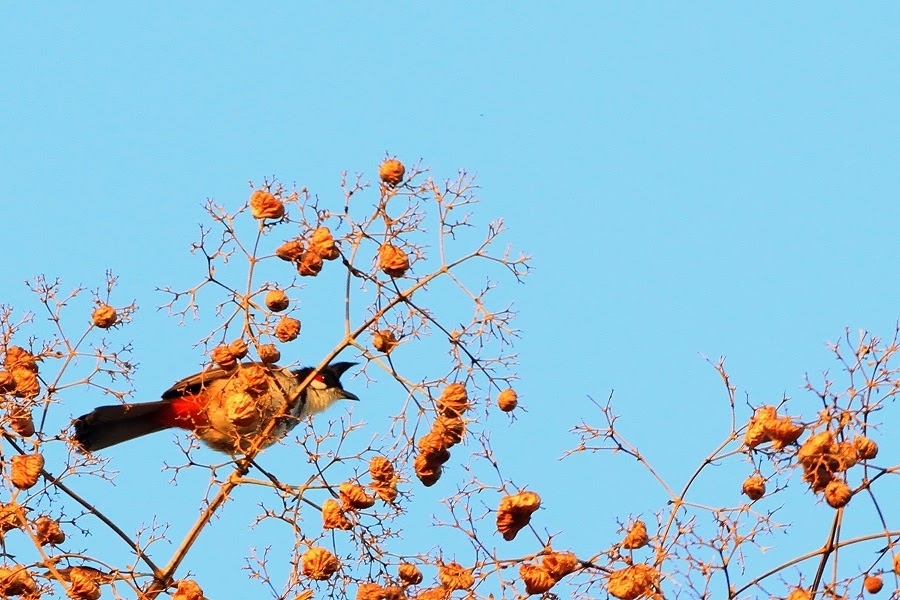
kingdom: Animalia
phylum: Chordata
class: Aves
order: Passeriformes
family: Pycnonotidae
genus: Pycnonotus
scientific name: Pycnonotus jocosus
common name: Red-whiskered bulbul
